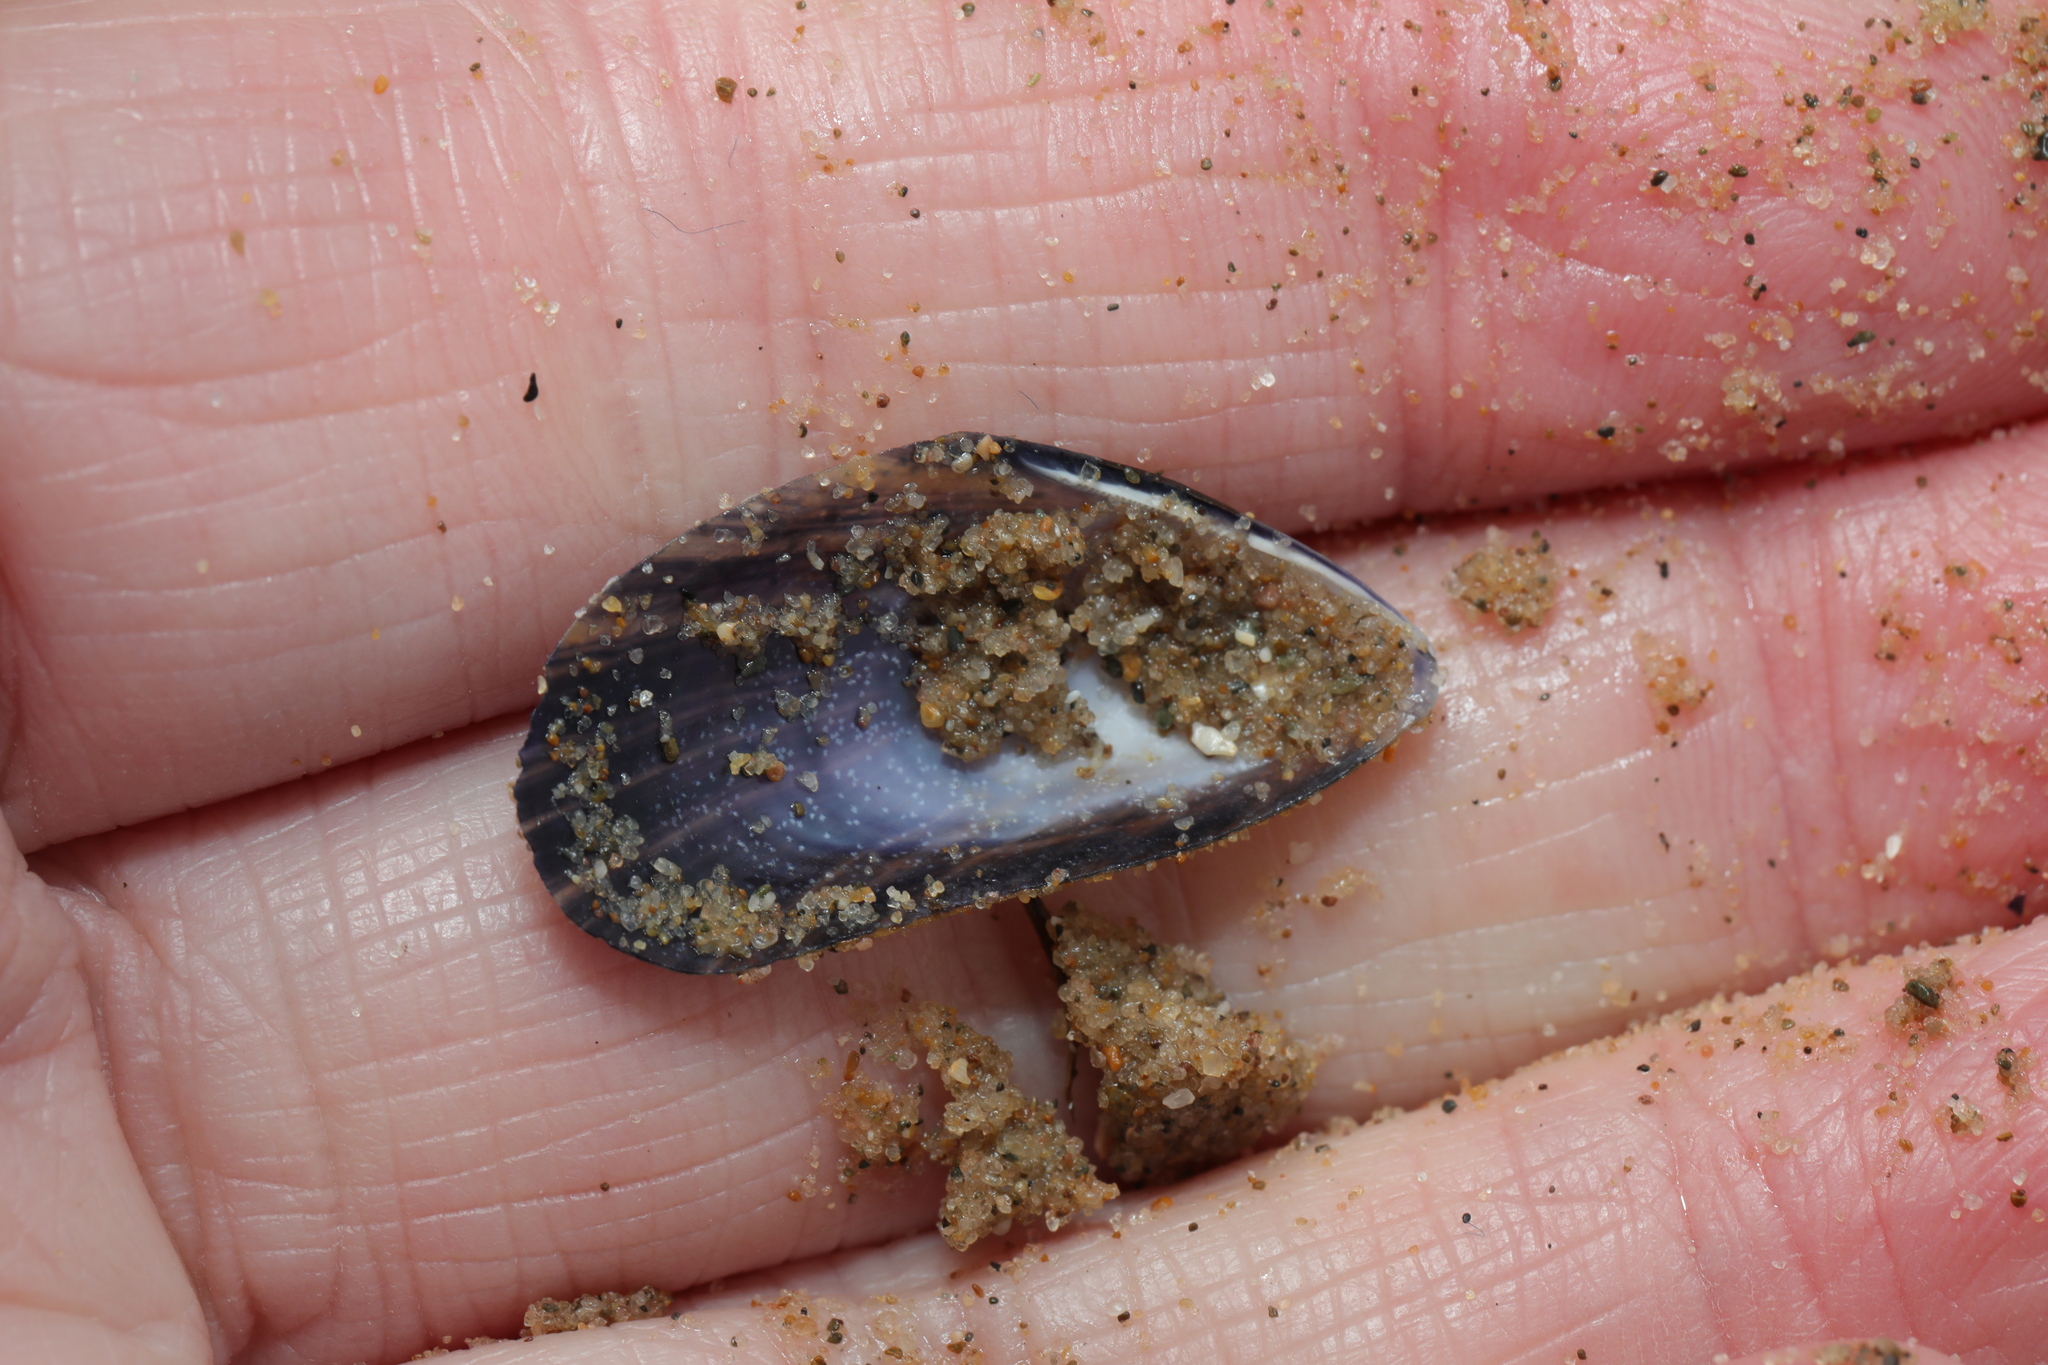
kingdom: Animalia
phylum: Mollusca
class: Bivalvia
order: Mytilida
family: Mytilidae
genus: Mytilus
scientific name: Mytilus edulis
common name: Blue mussel
